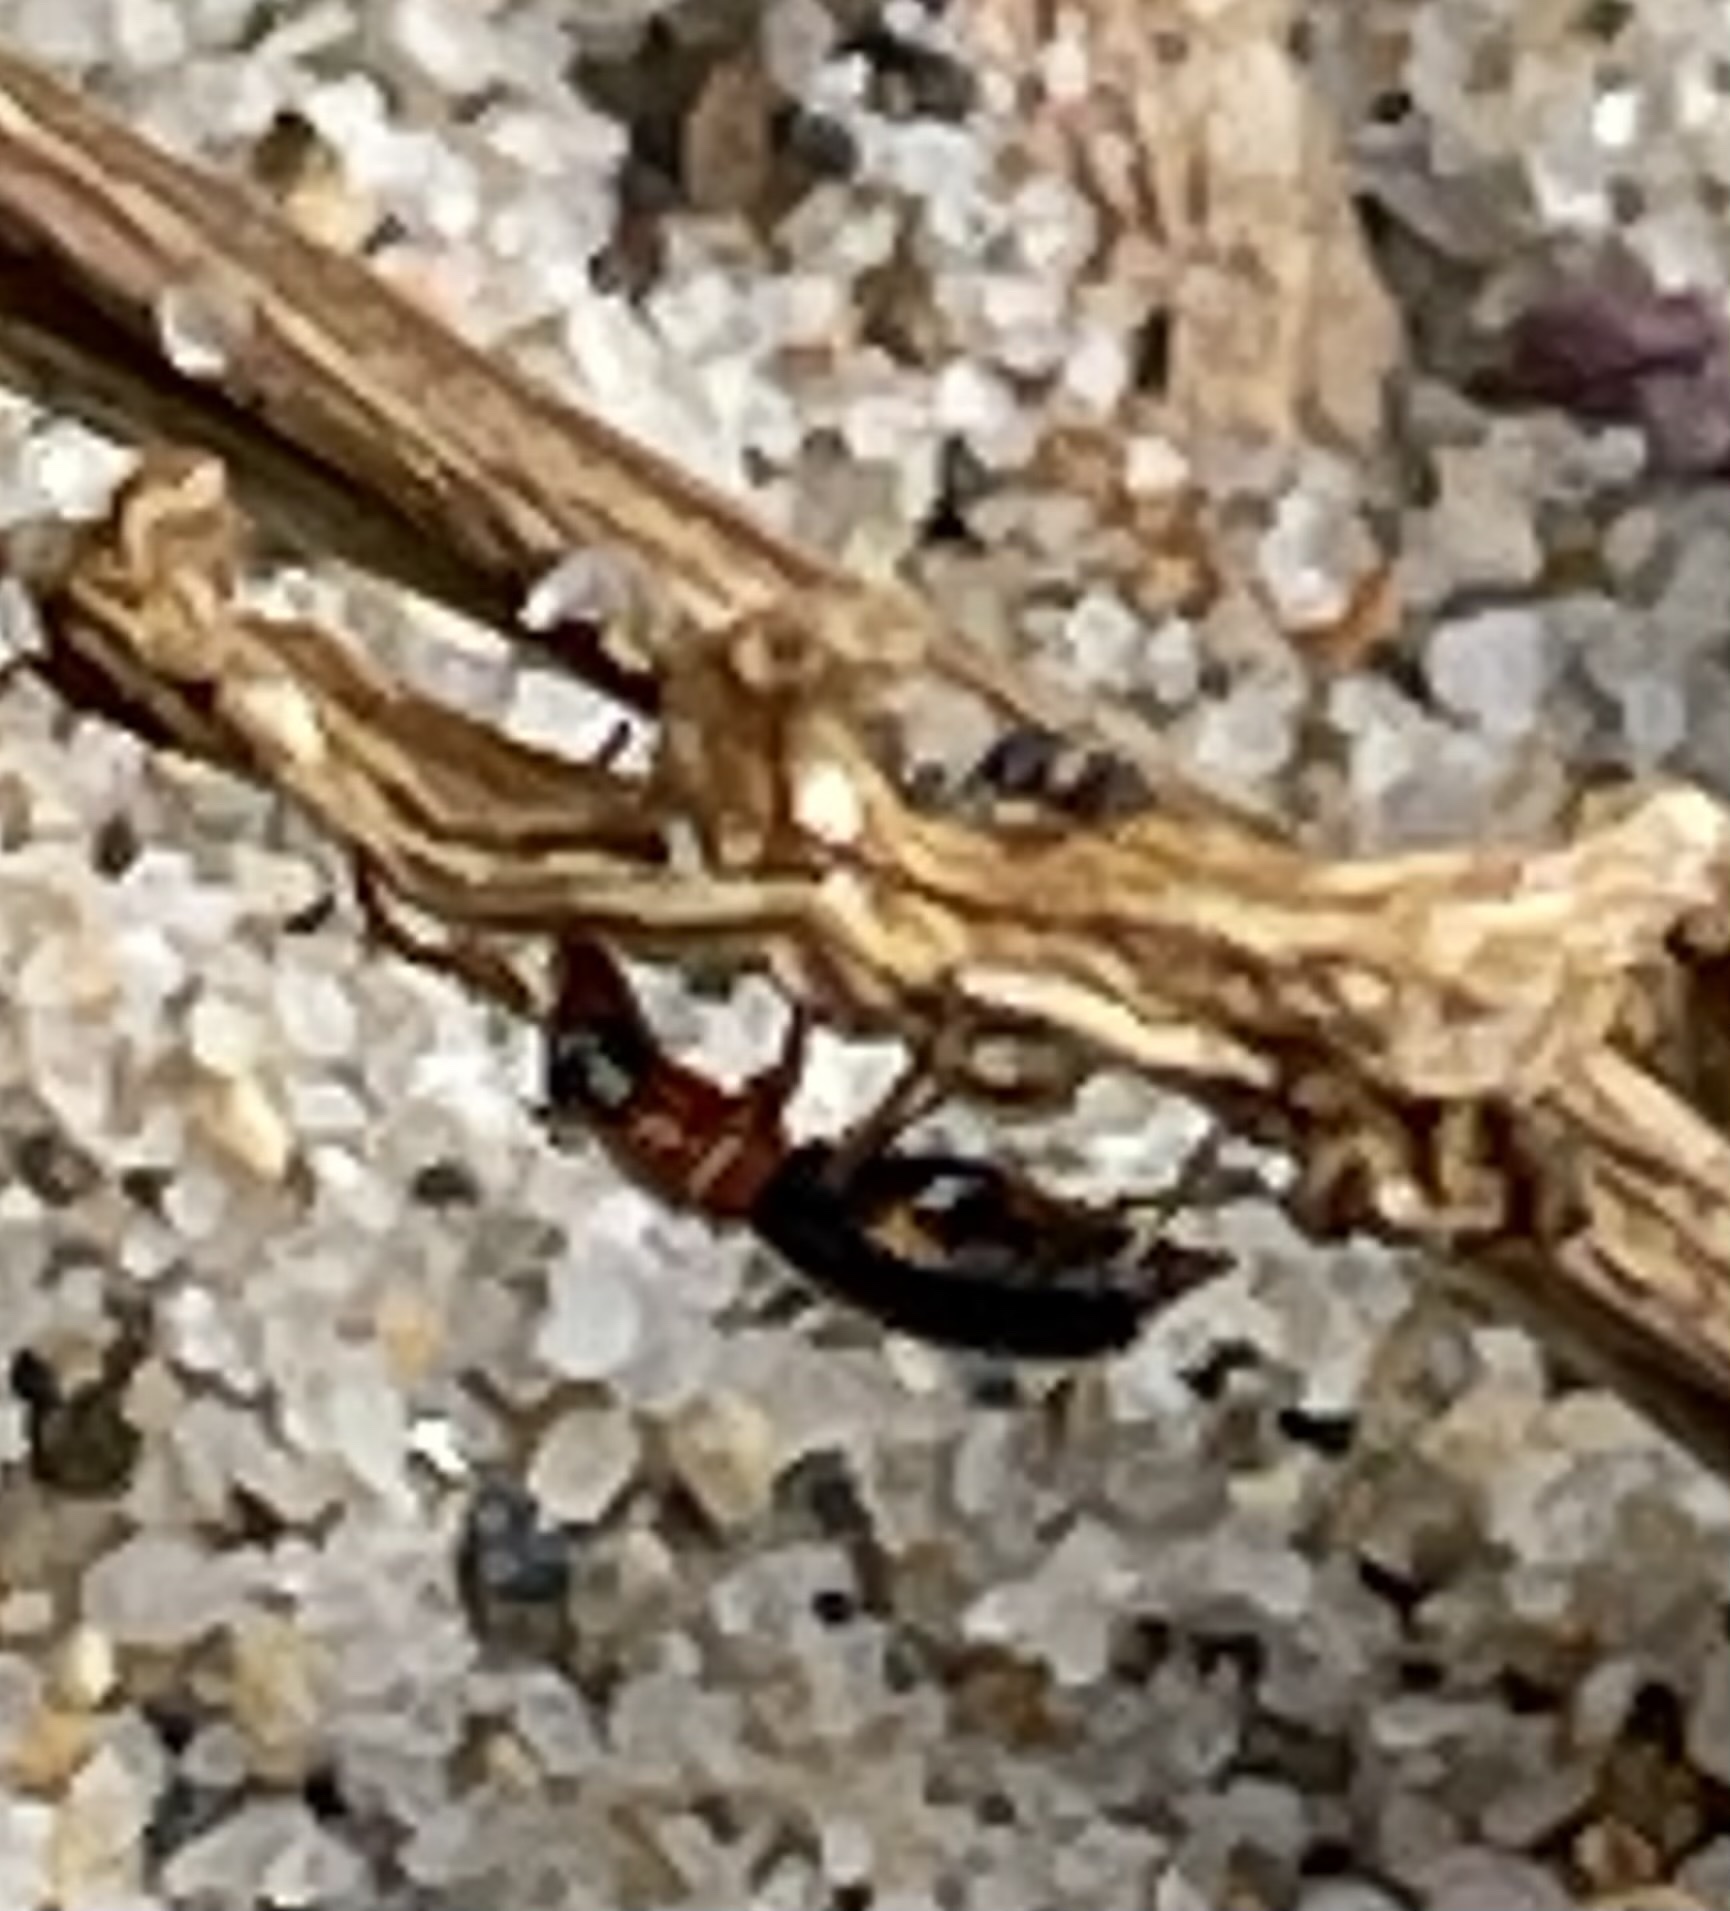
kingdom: Animalia
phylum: Arthropoda
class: Insecta
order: Coleoptera
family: Melyridae
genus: Collops
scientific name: Collops cribrosus
